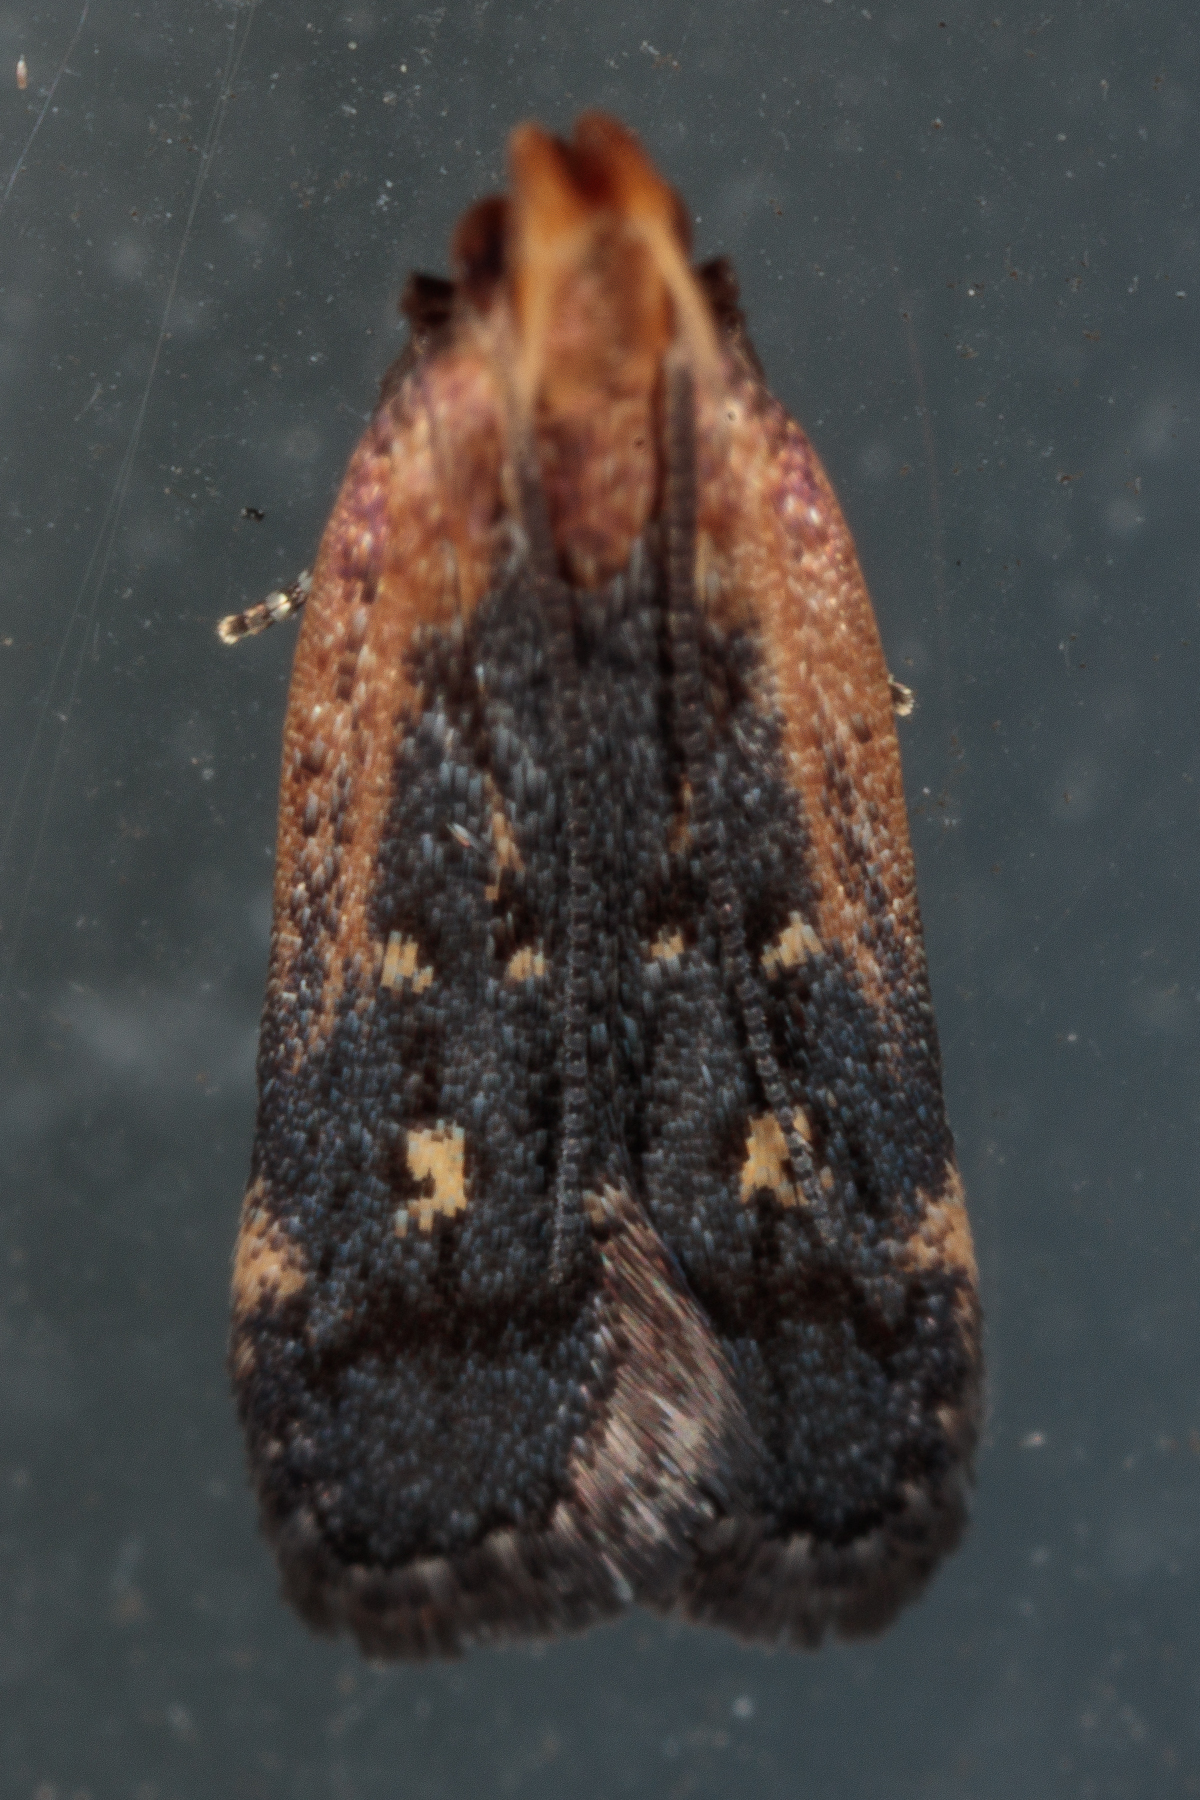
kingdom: Animalia
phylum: Arthropoda
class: Insecta
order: Lepidoptera
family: Gelechiidae
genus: Dichomeris
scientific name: Dichomeris costarufoella
